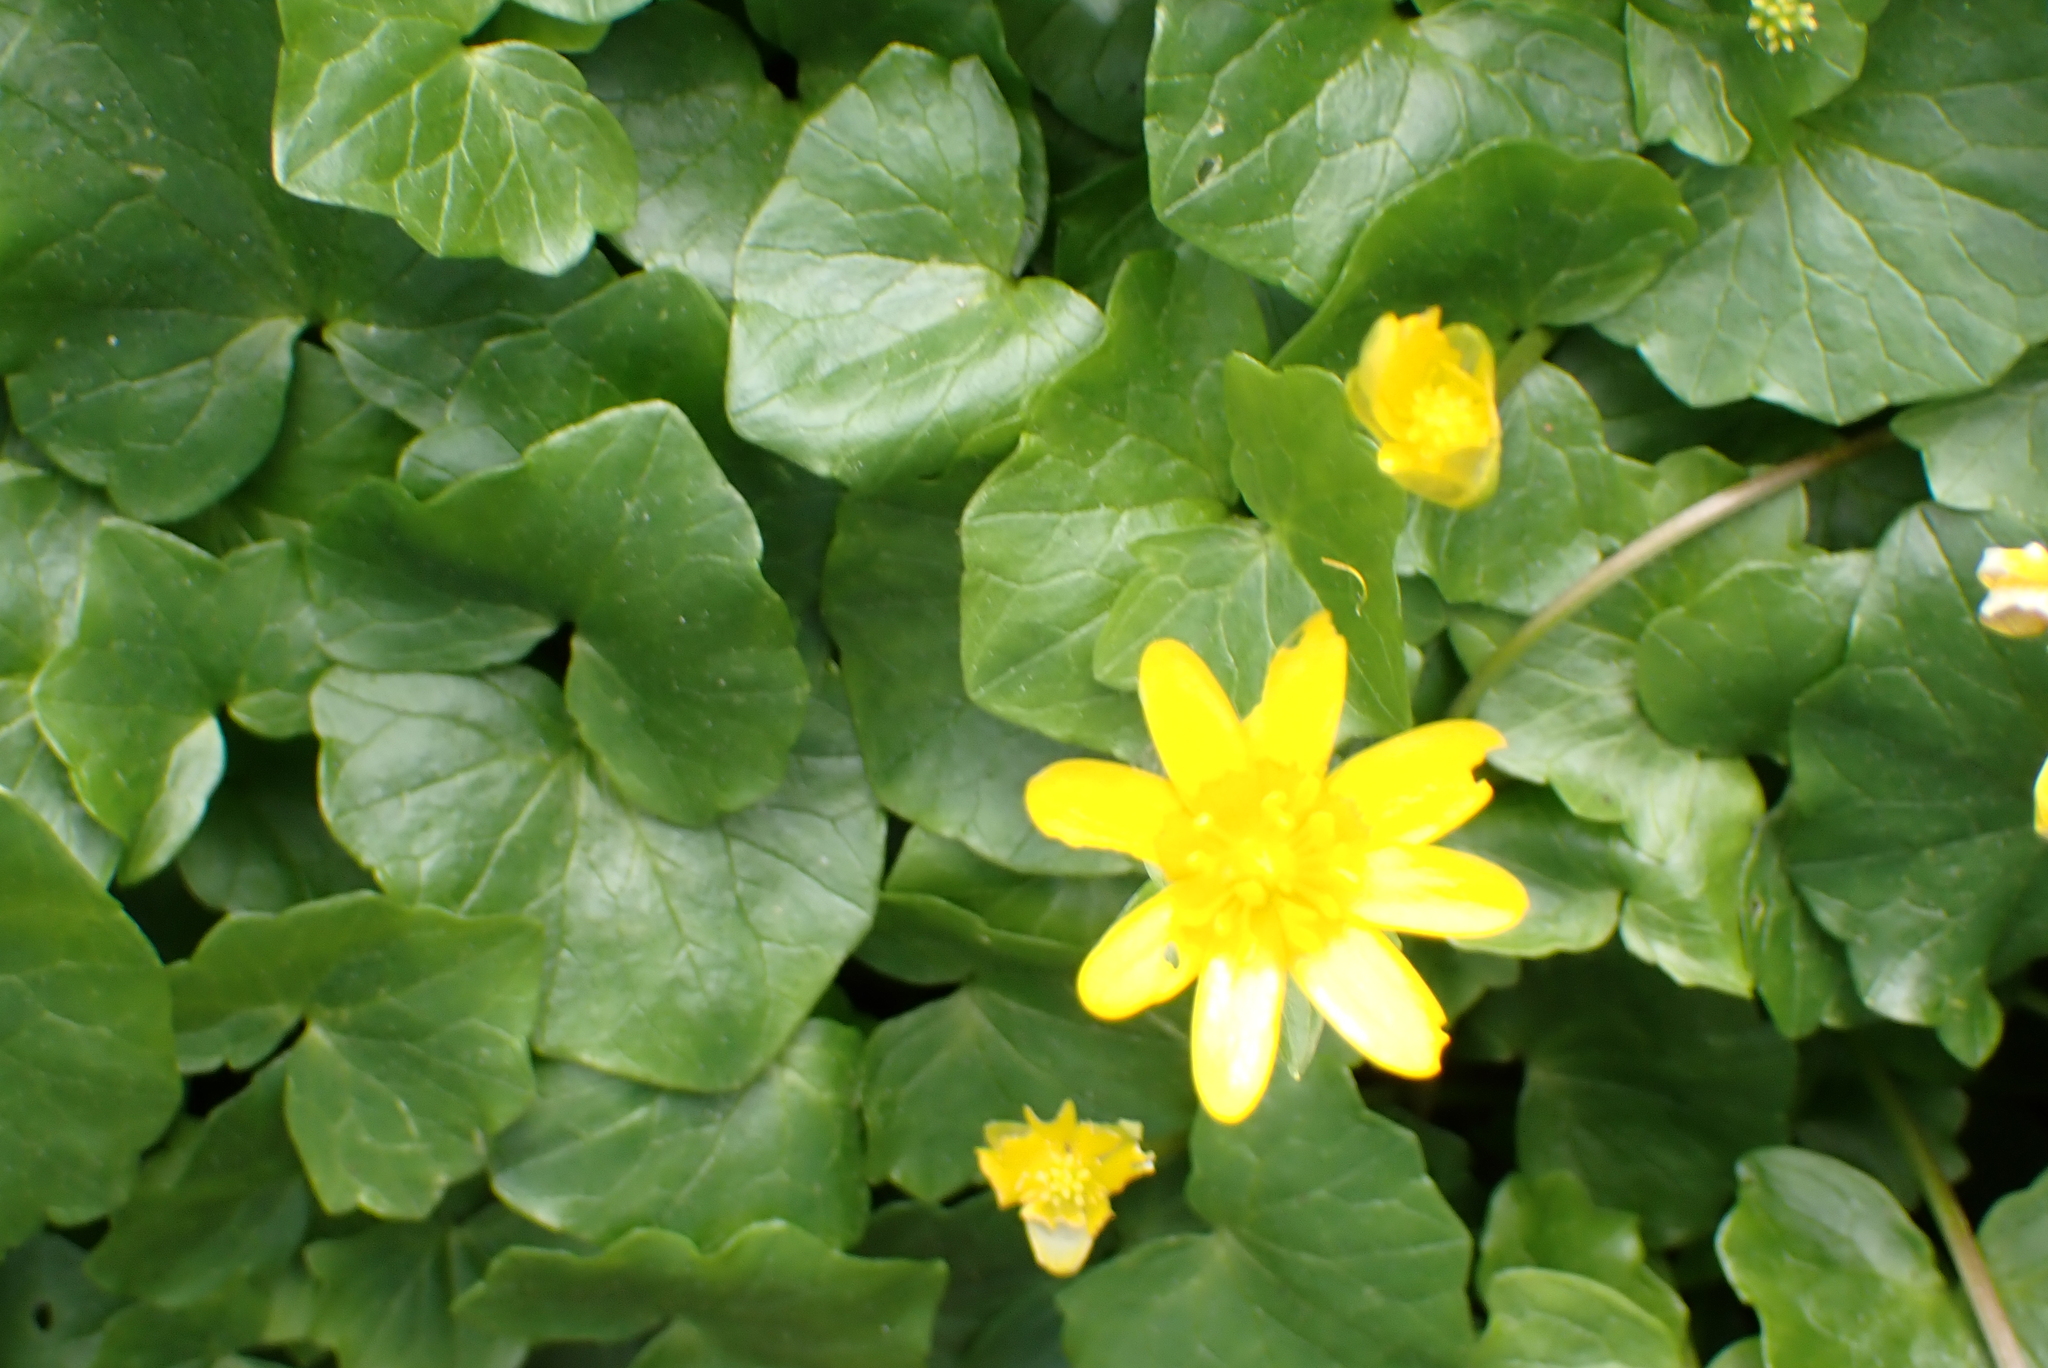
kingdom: Plantae
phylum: Tracheophyta
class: Magnoliopsida
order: Ranunculales
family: Ranunculaceae
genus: Ficaria
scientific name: Ficaria verna
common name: Lesser celandine
